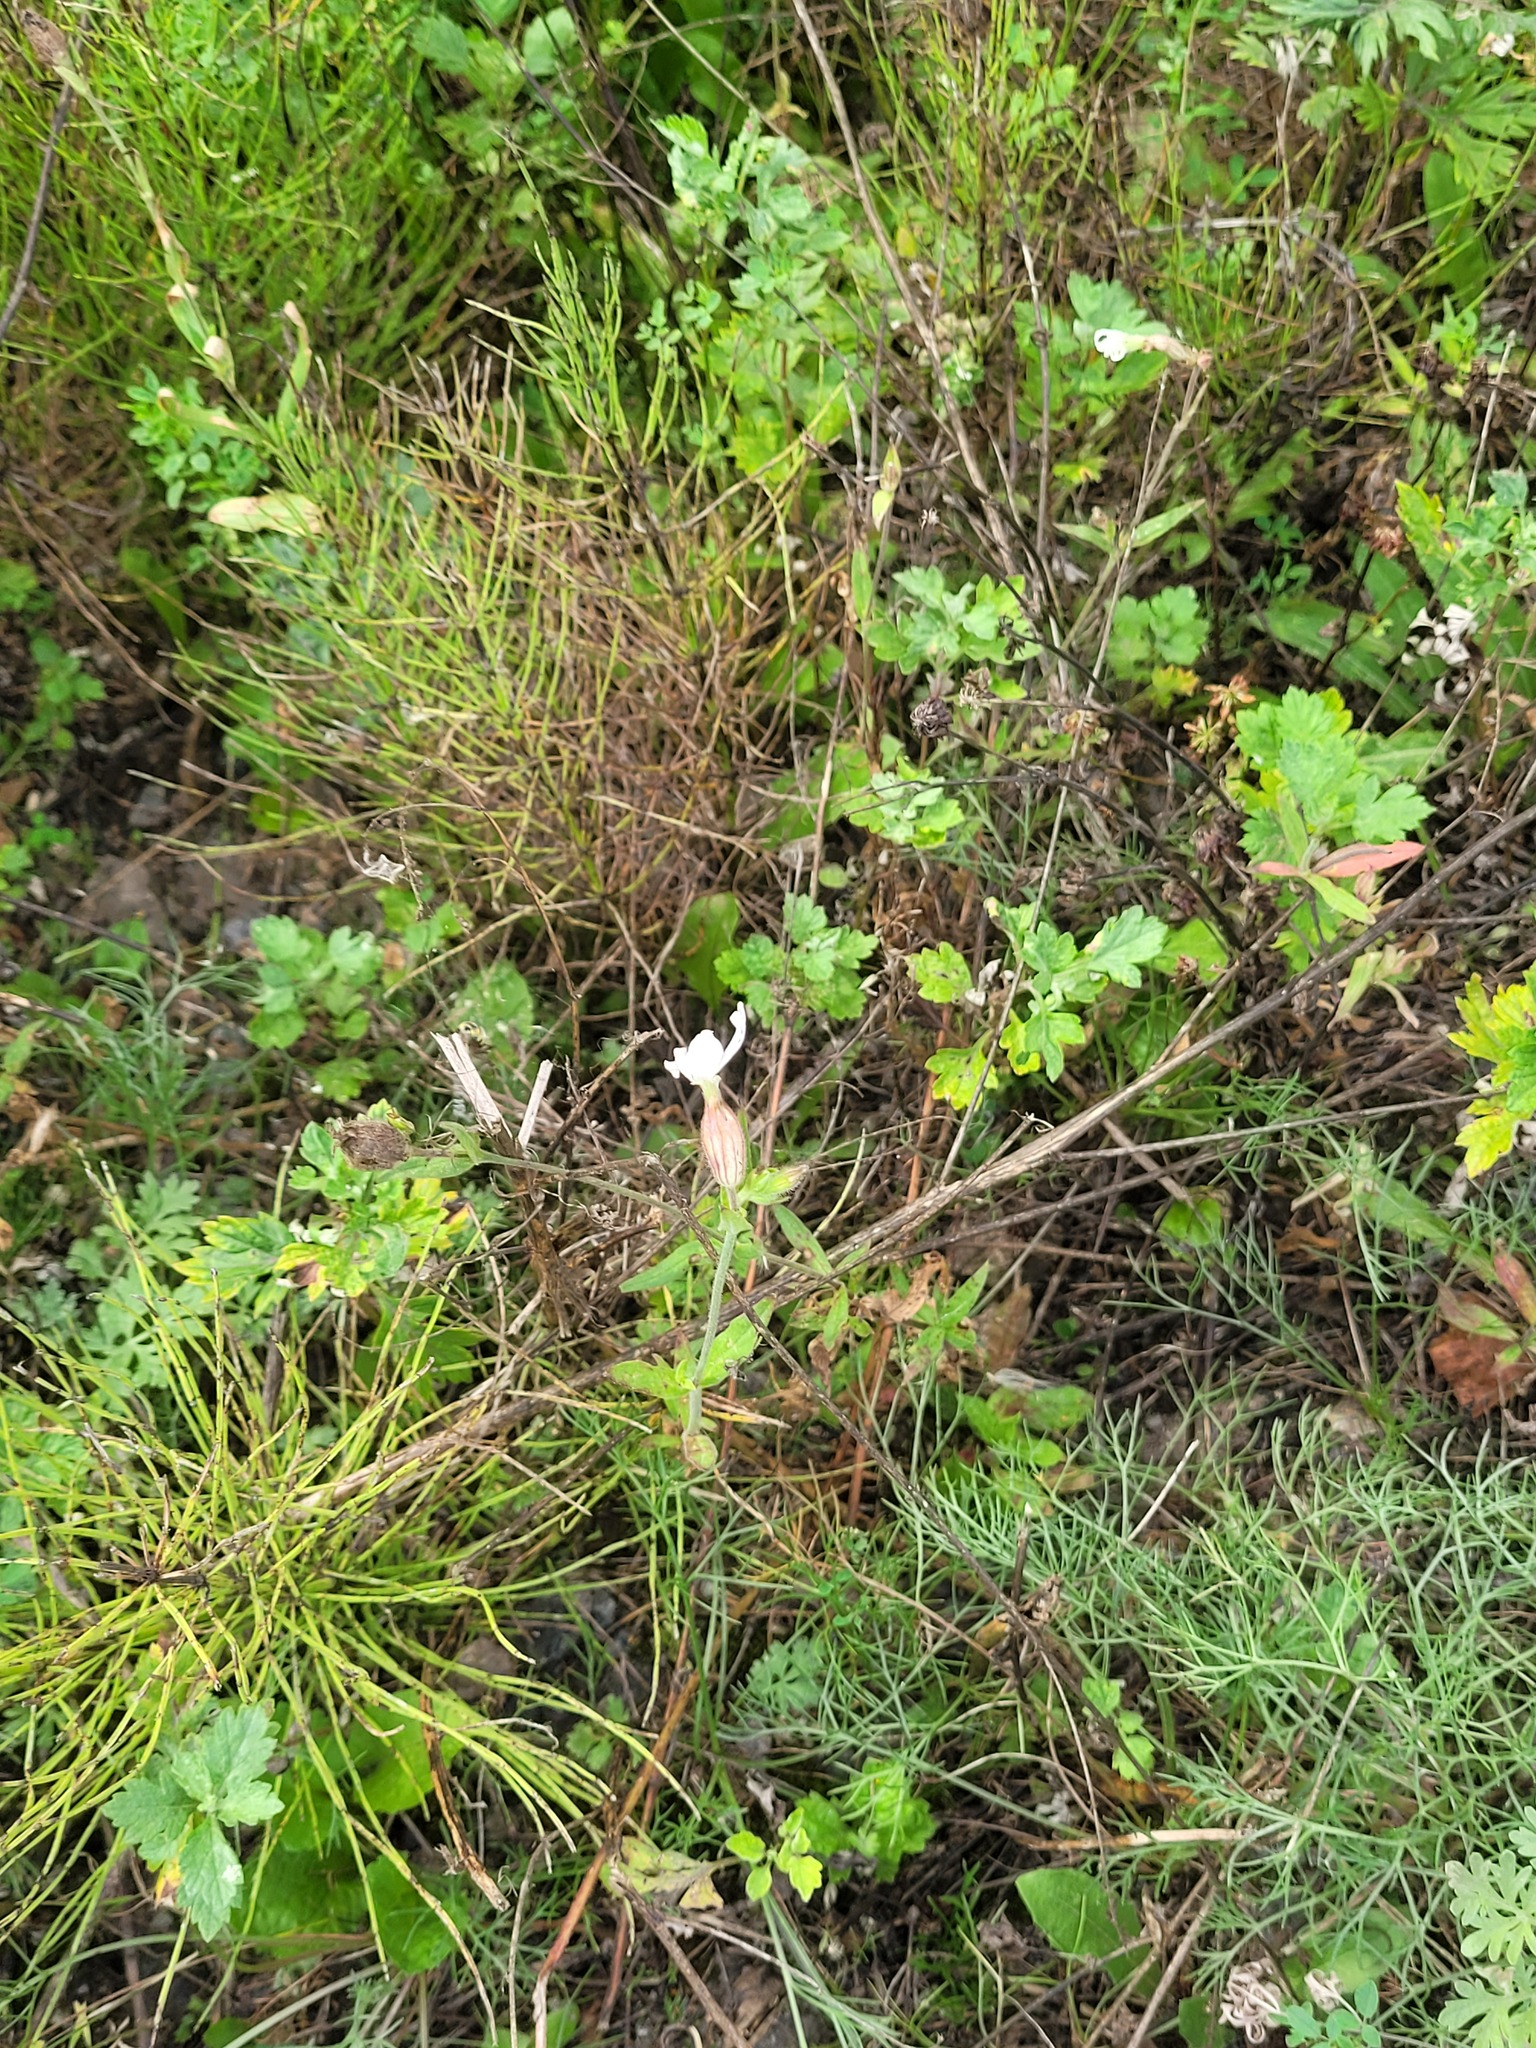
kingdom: Plantae
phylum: Tracheophyta
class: Magnoliopsida
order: Caryophyllales
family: Caryophyllaceae
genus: Silene
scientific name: Silene latifolia
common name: White campion
